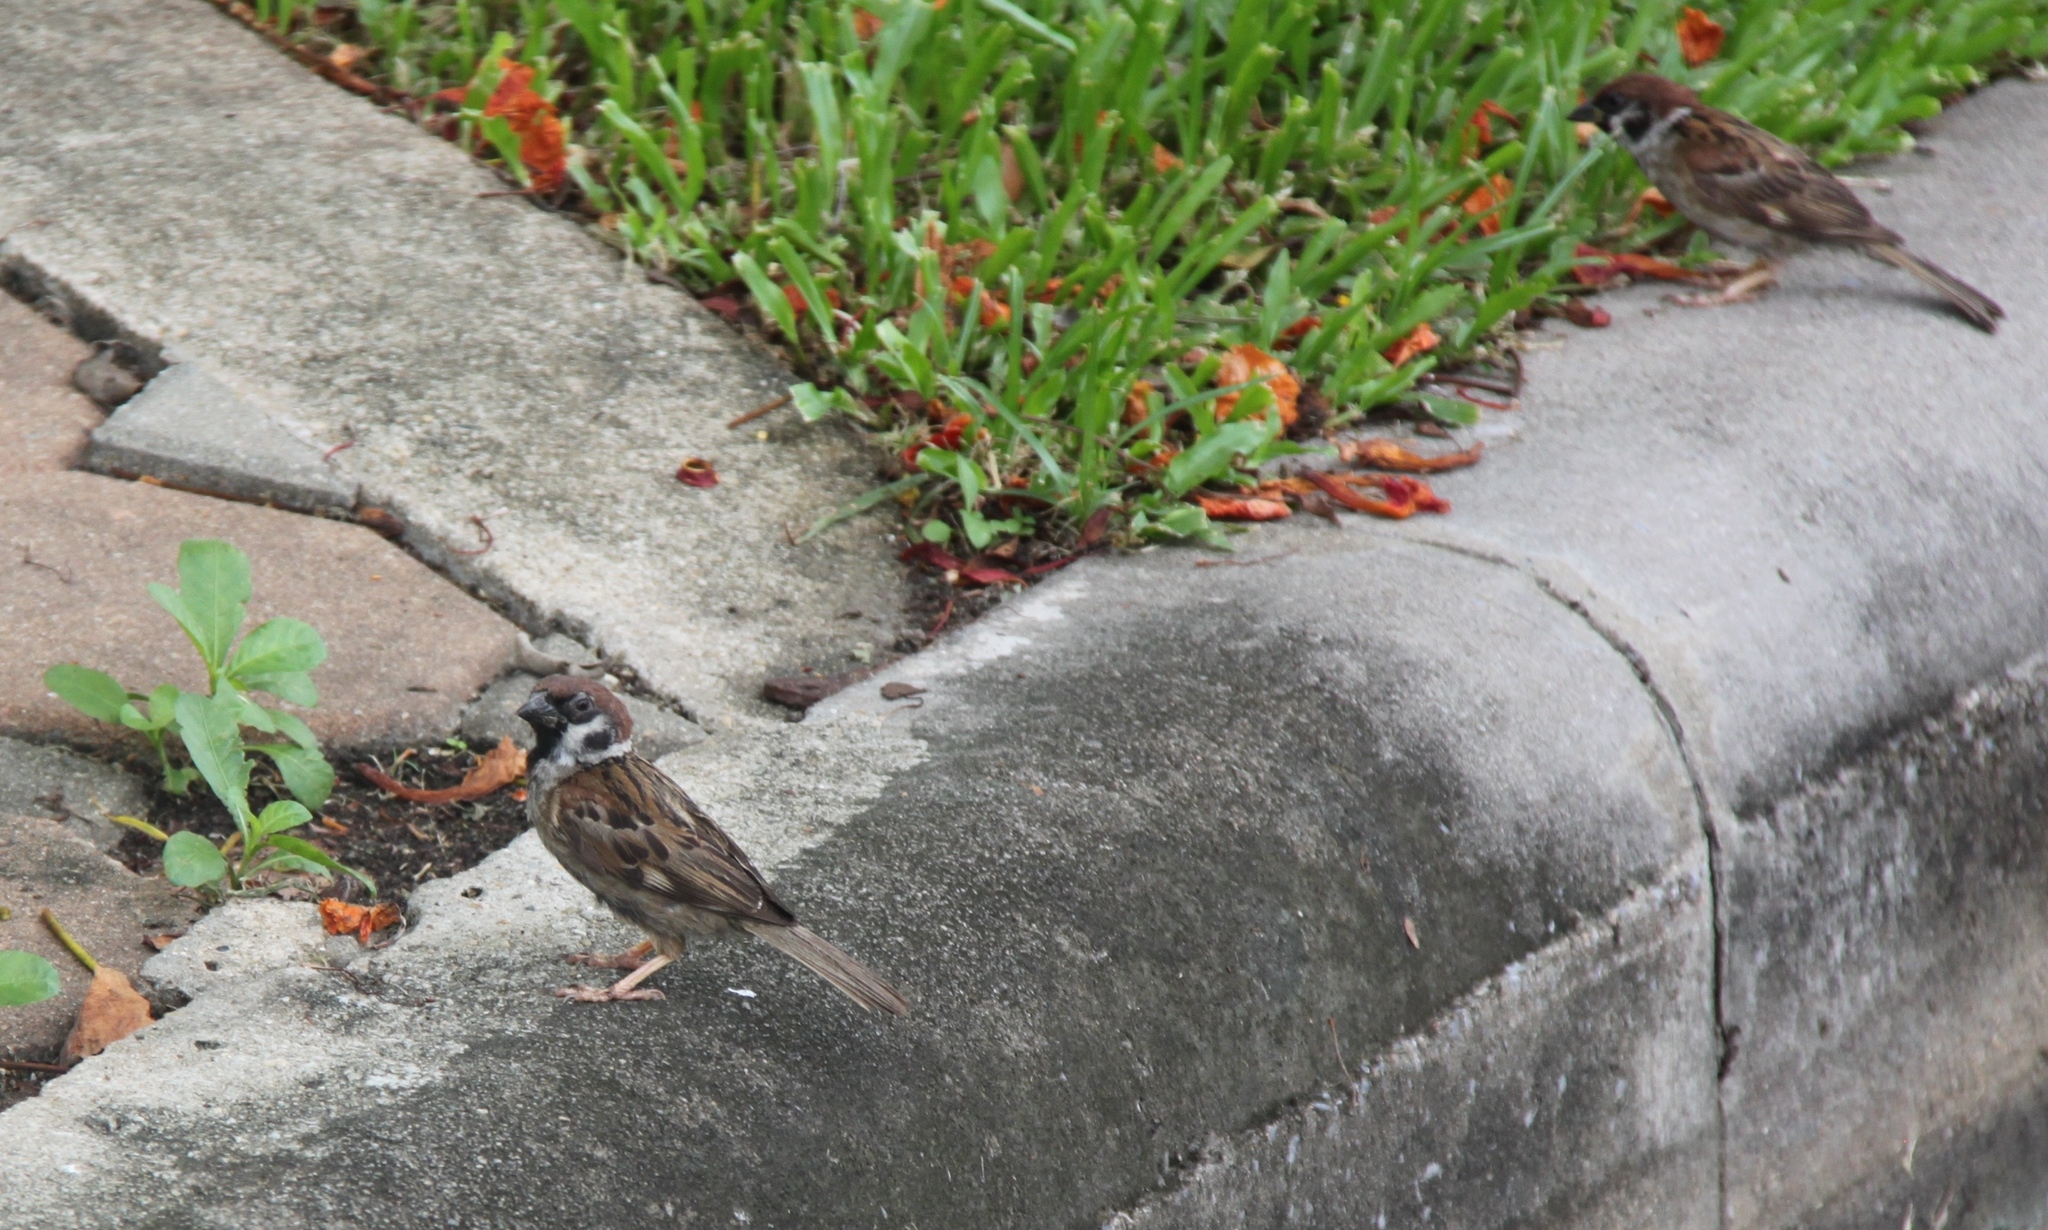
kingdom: Animalia
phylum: Chordata
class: Aves
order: Passeriformes
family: Passeridae
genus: Passer
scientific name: Passer montanus
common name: Eurasian tree sparrow
